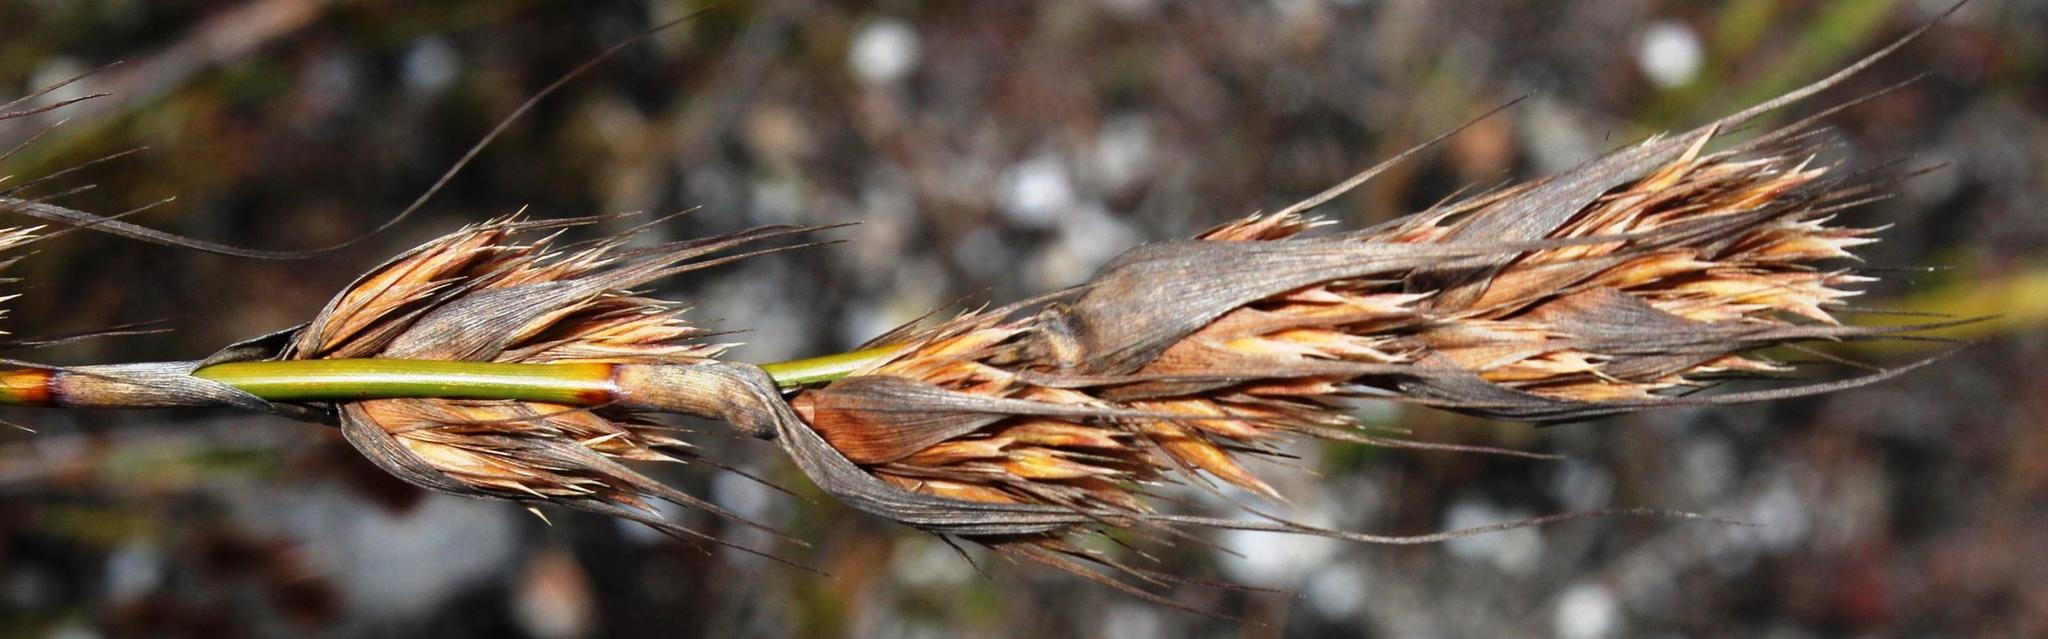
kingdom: Plantae
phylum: Tracheophyta
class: Liliopsida
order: Poales
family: Cyperaceae
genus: Tetraria
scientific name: Tetraria bromoides
